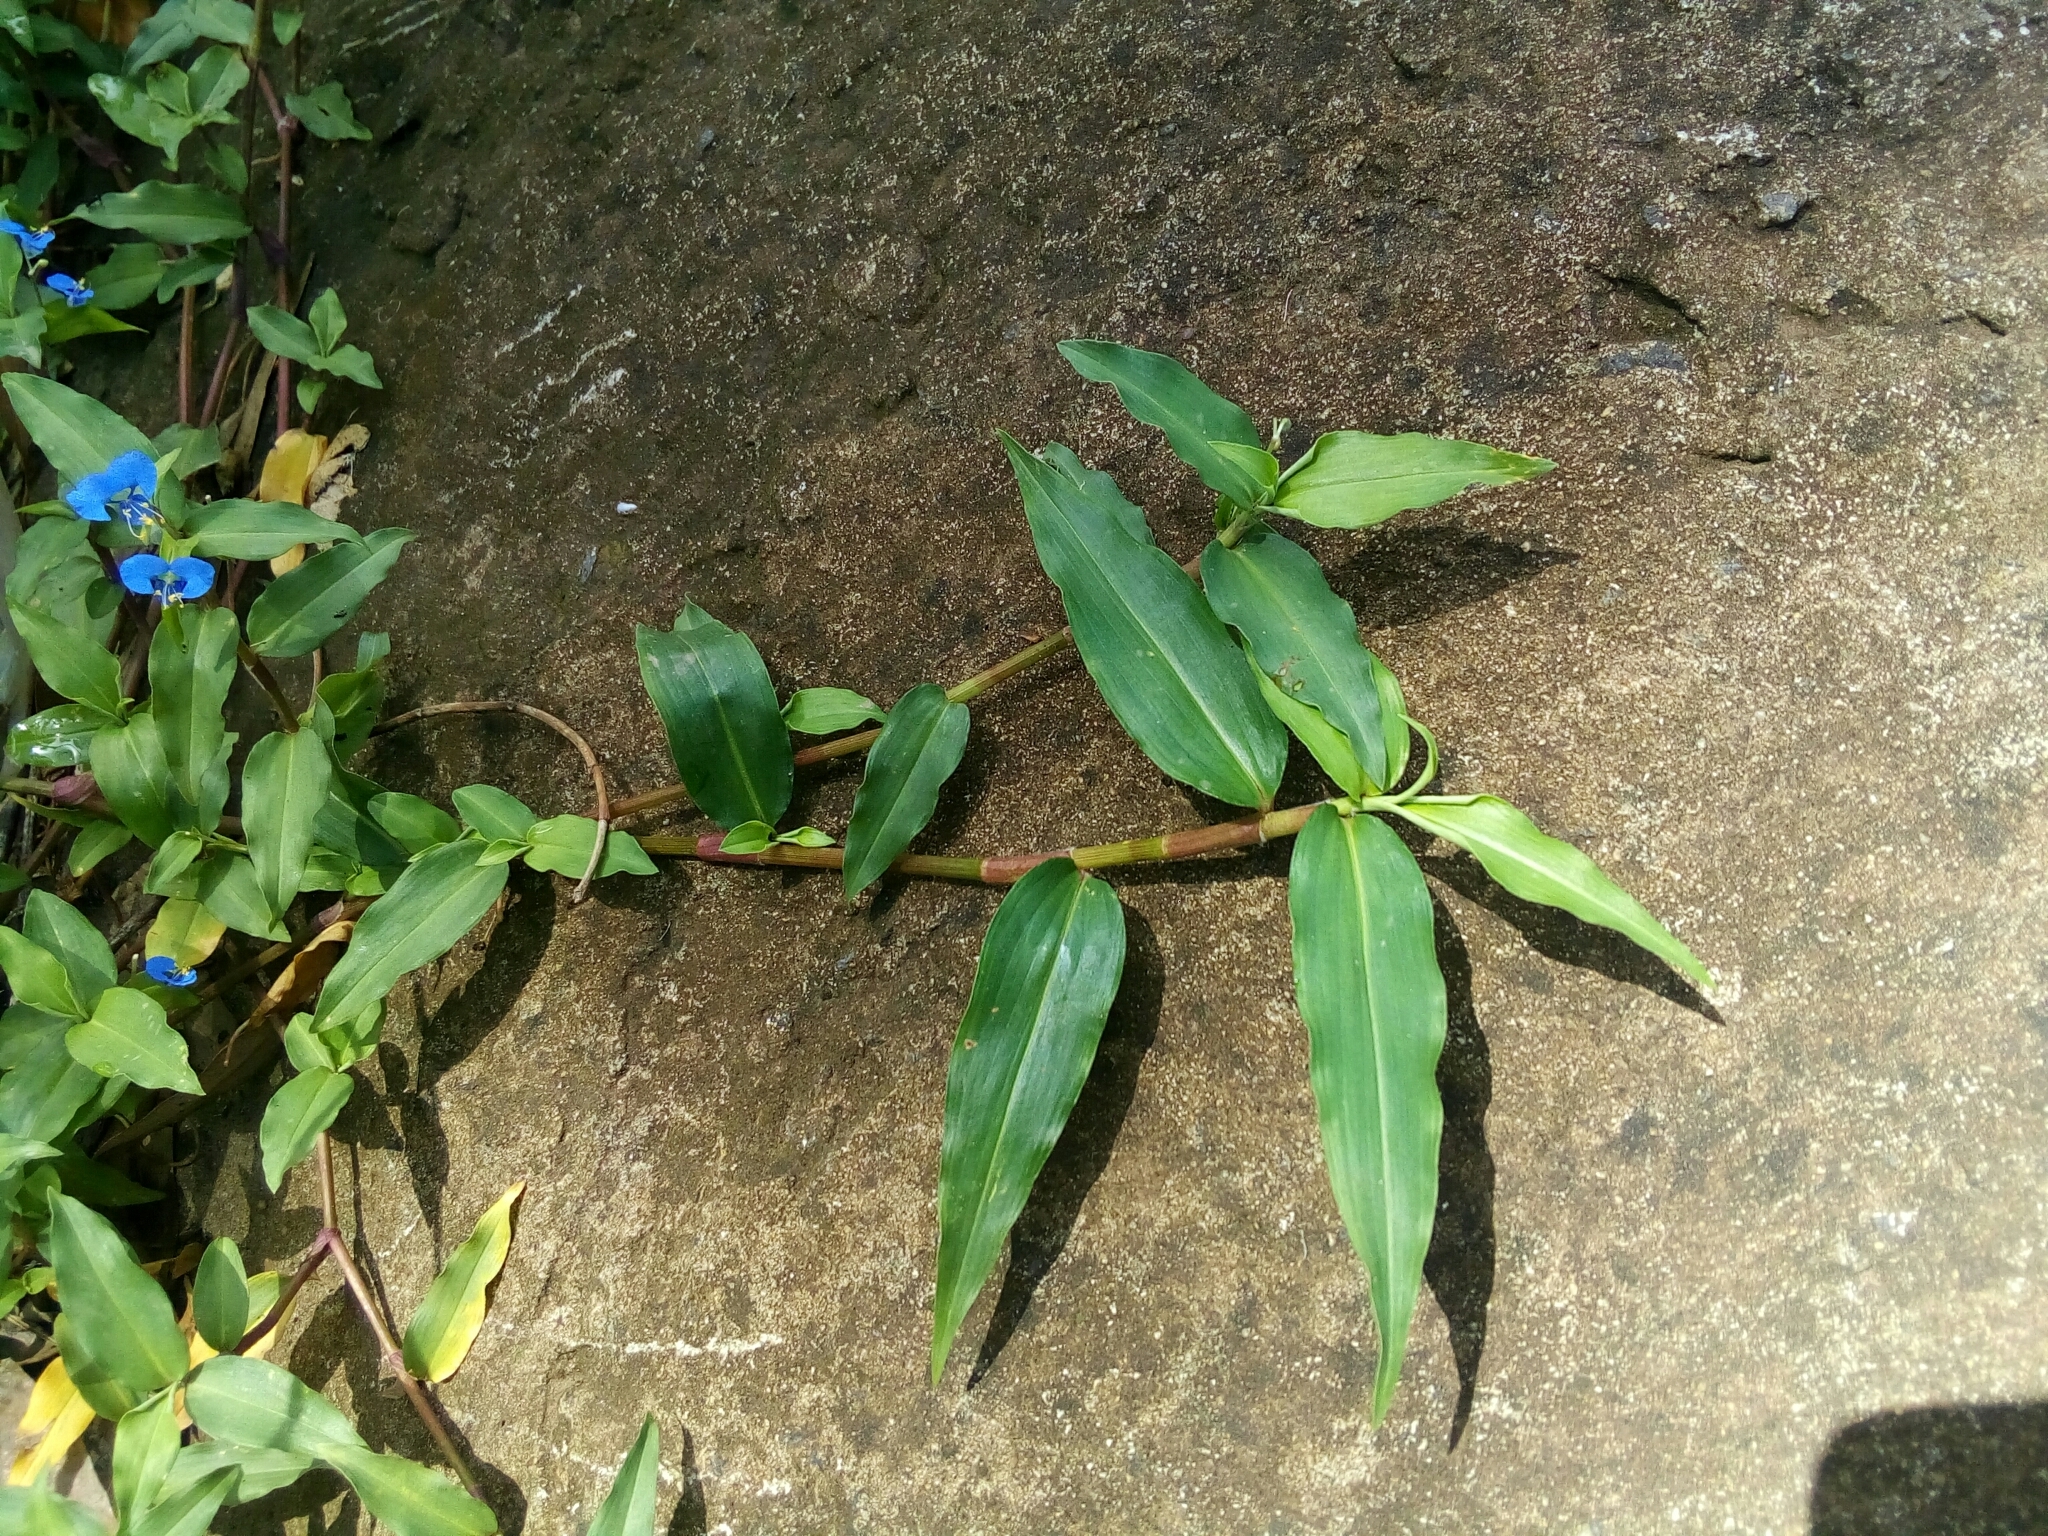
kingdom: Plantae
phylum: Tracheophyta
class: Liliopsida
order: Commelinales
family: Commelinaceae
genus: Commelina
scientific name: Commelina diffusa
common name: Climbing dayflower
